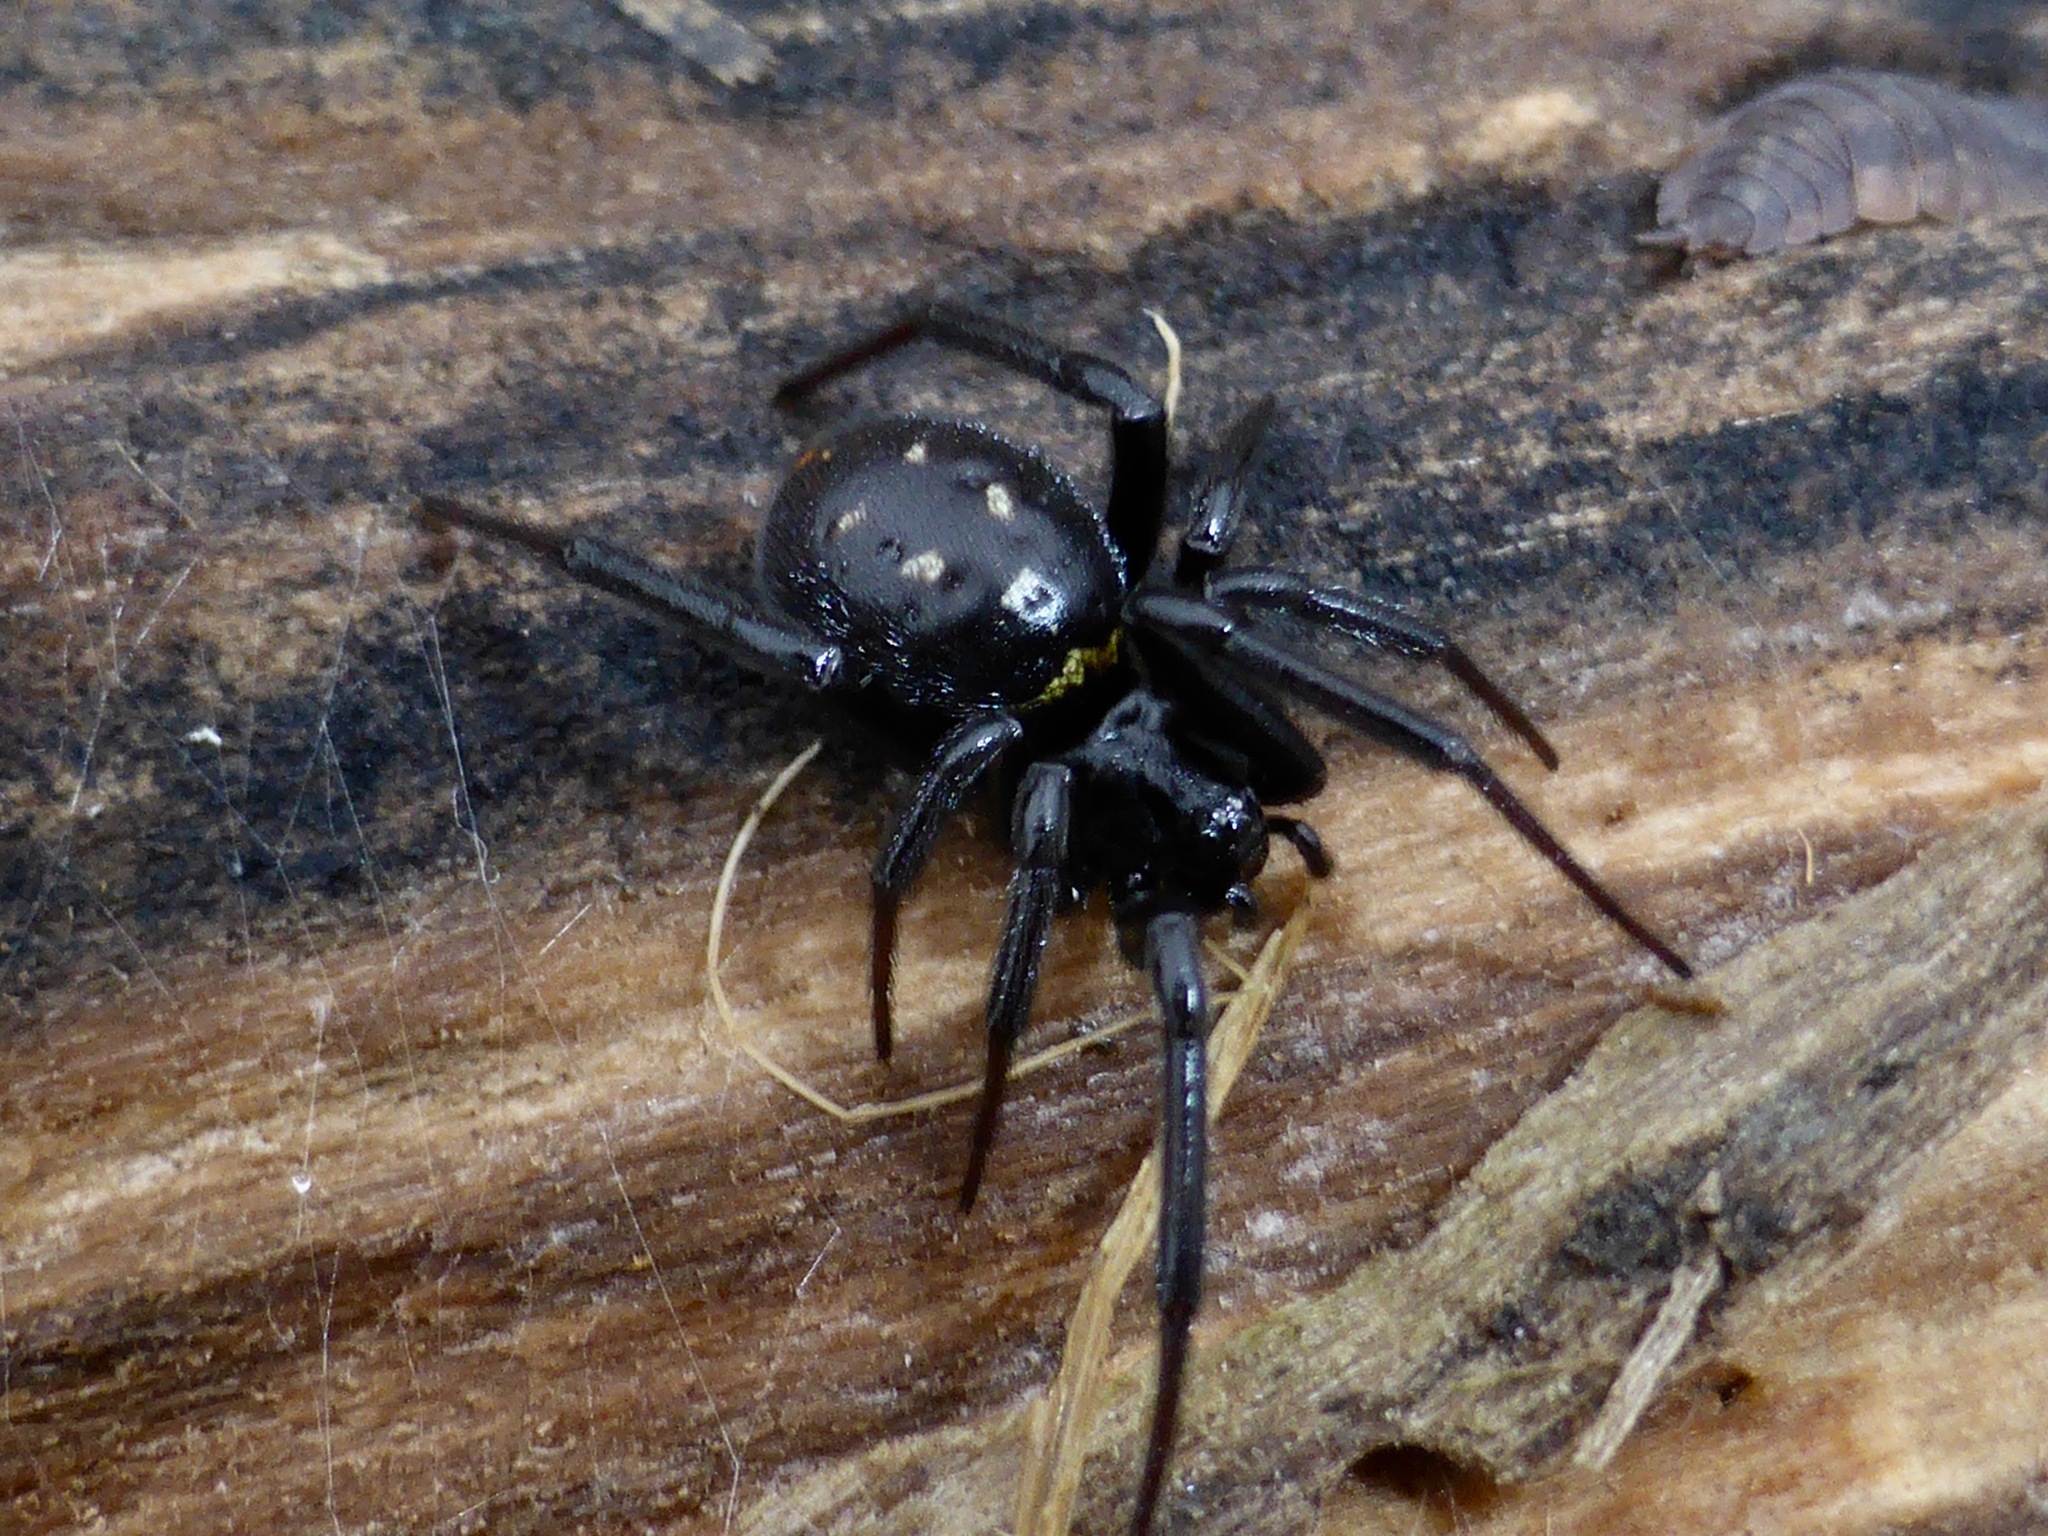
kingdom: Animalia
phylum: Arthropoda
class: Arachnida
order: Araneae
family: Theridiidae
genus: Steatoda
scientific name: Steatoda capensis
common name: Cobweb weaver
